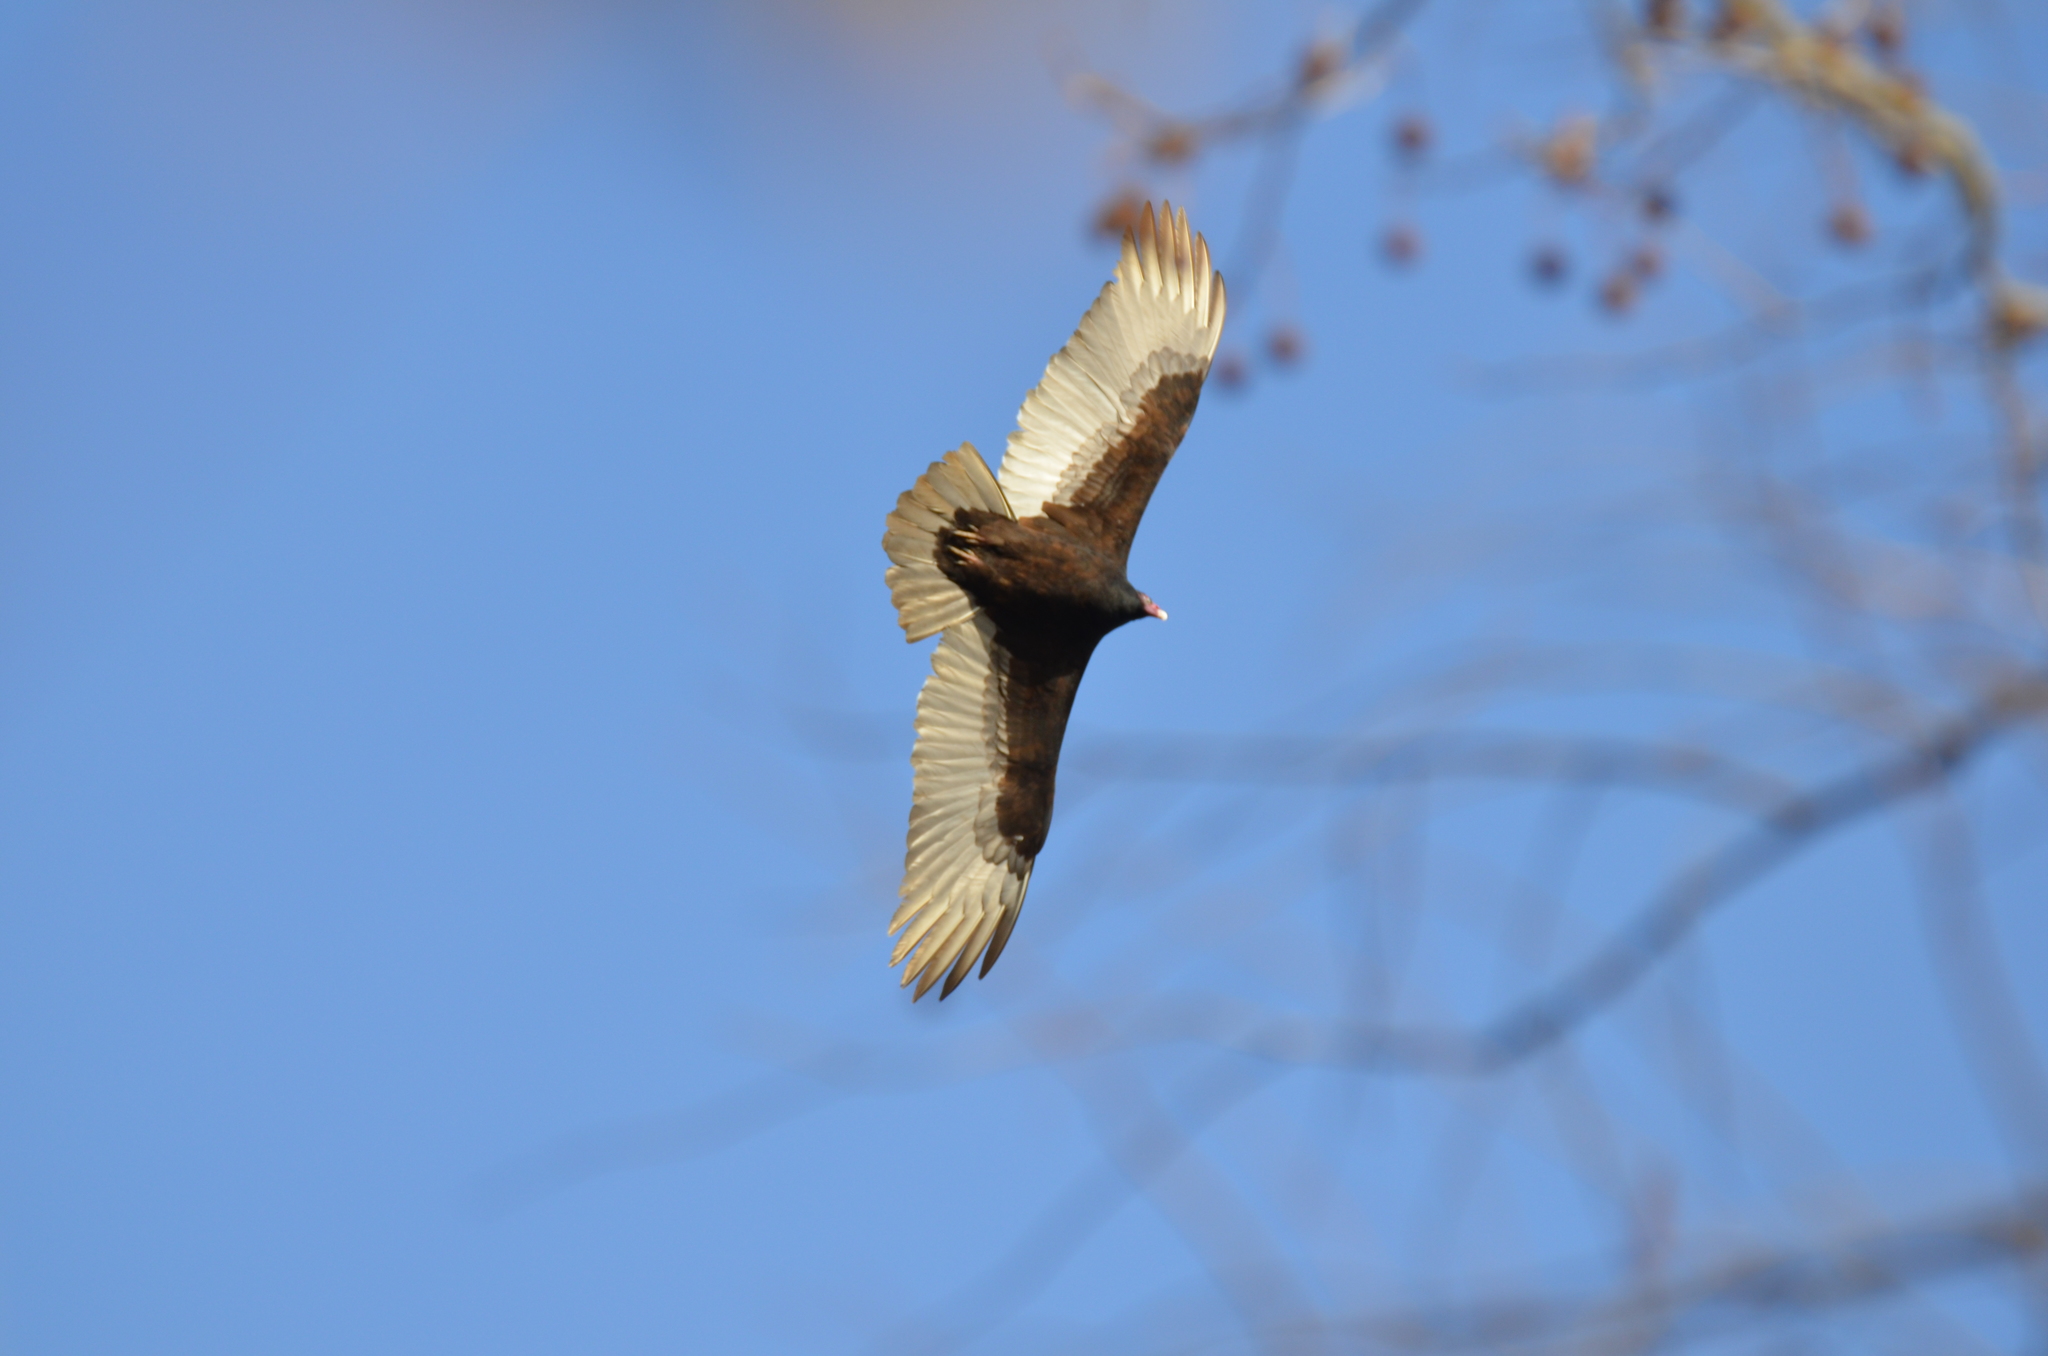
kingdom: Animalia
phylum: Chordata
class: Aves
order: Accipitriformes
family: Cathartidae
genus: Cathartes
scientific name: Cathartes aura
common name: Turkey vulture
